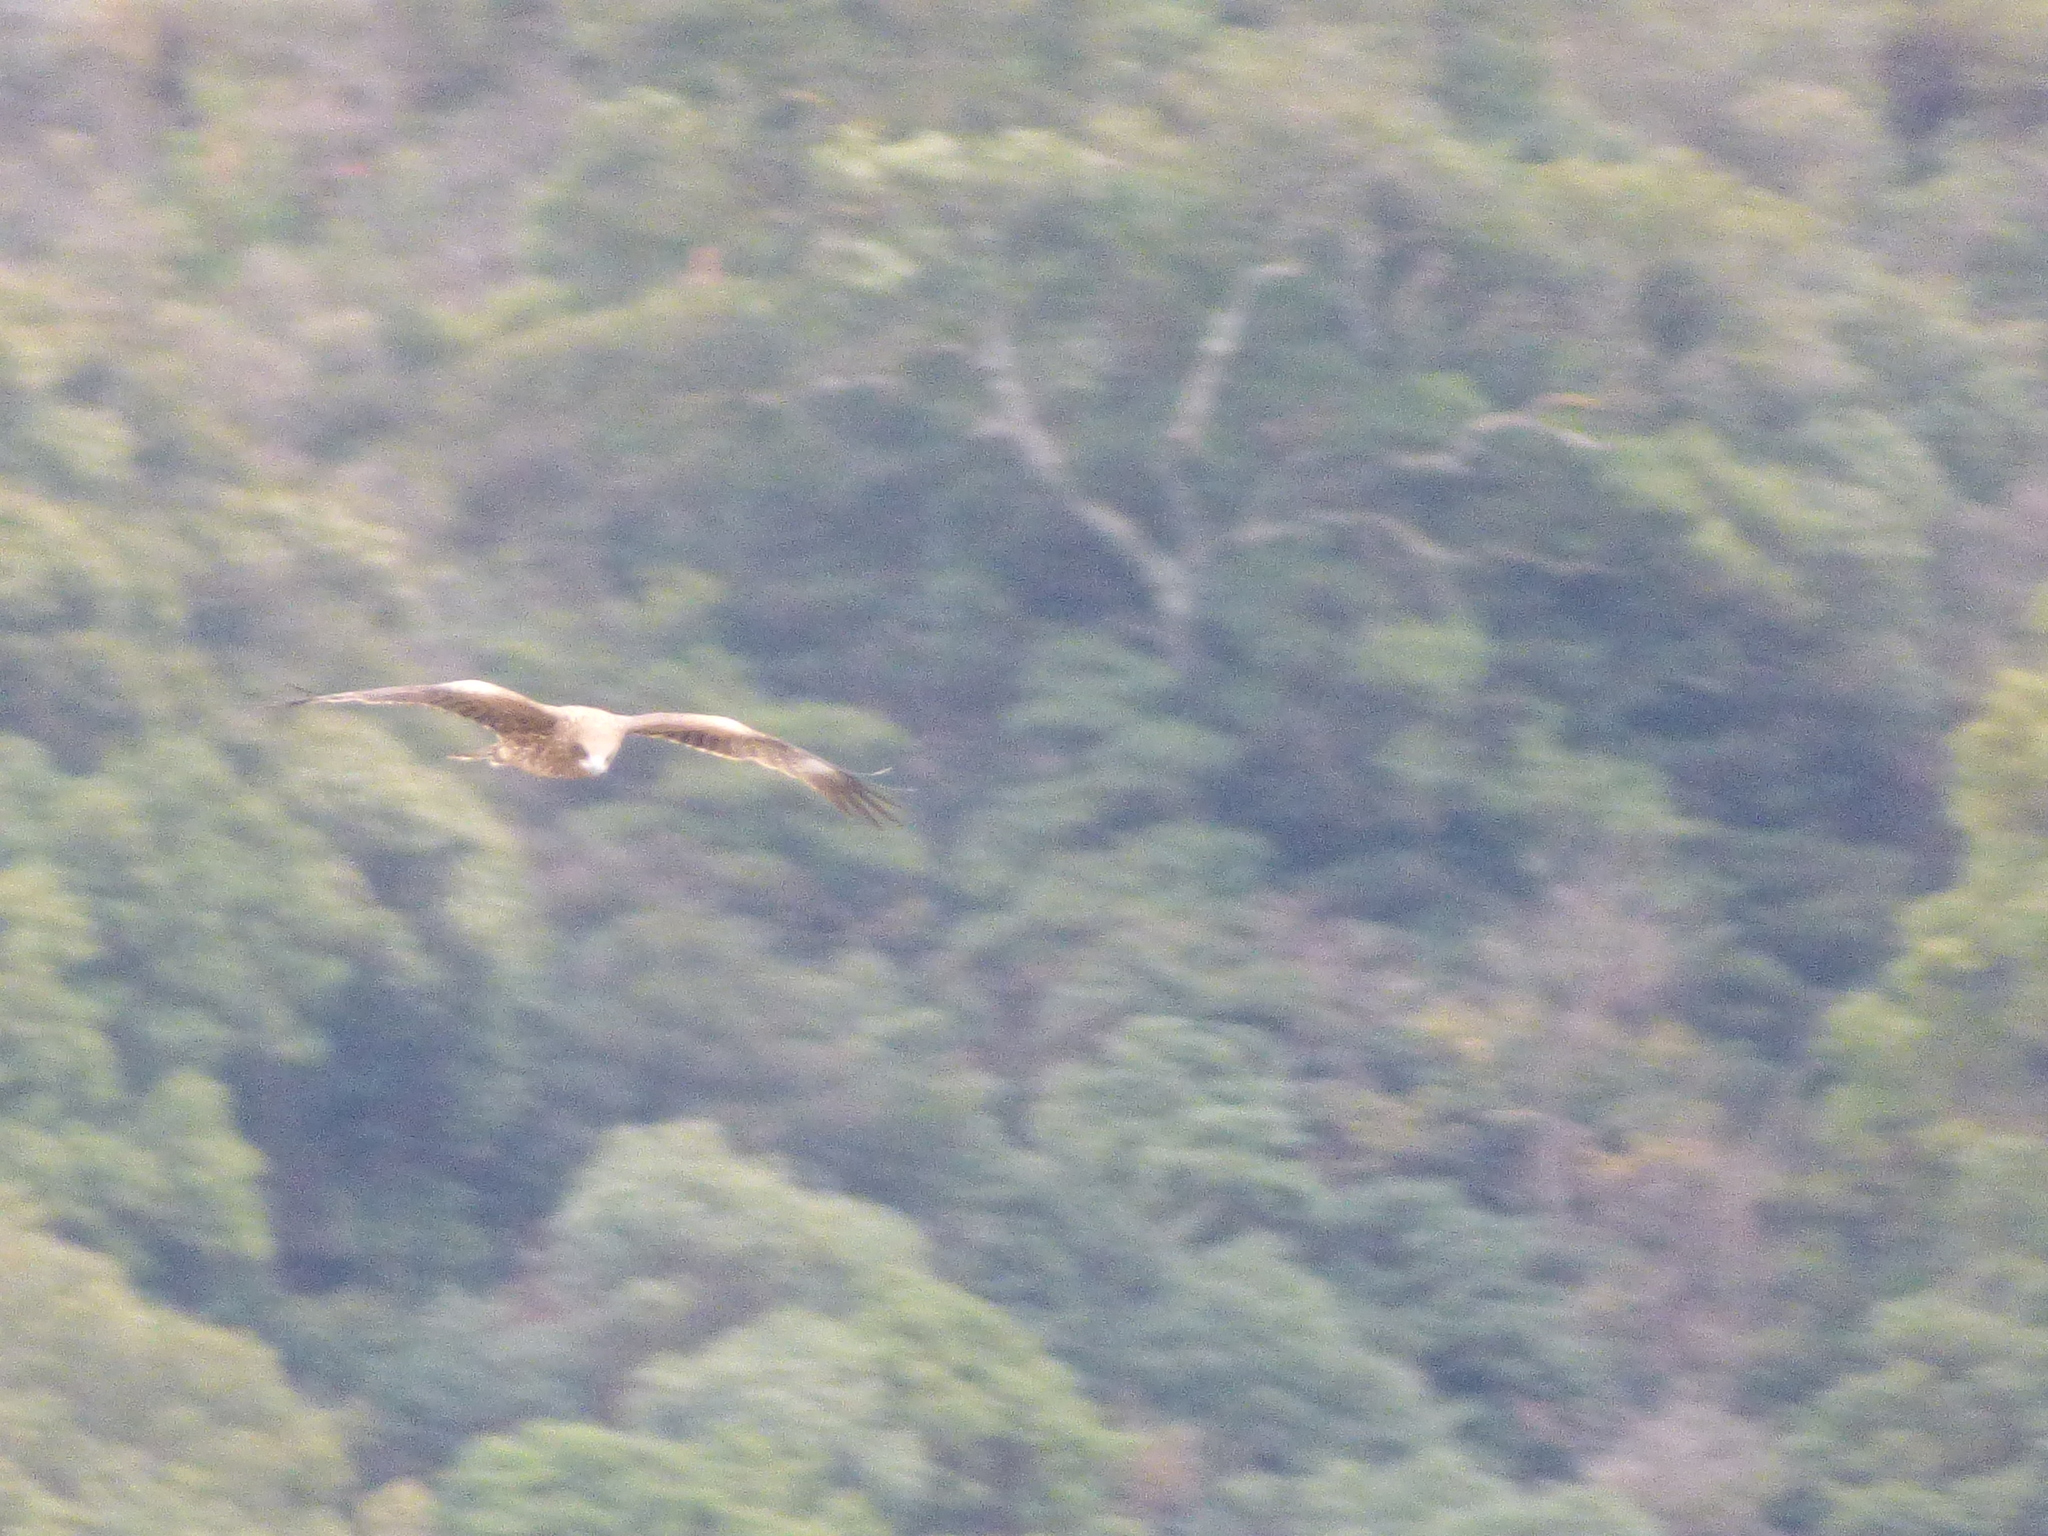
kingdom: Animalia
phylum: Chordata
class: Aves
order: Accipitriformes
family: Accipitridae
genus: Milvus
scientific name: Milvus migrans
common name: Black kite
